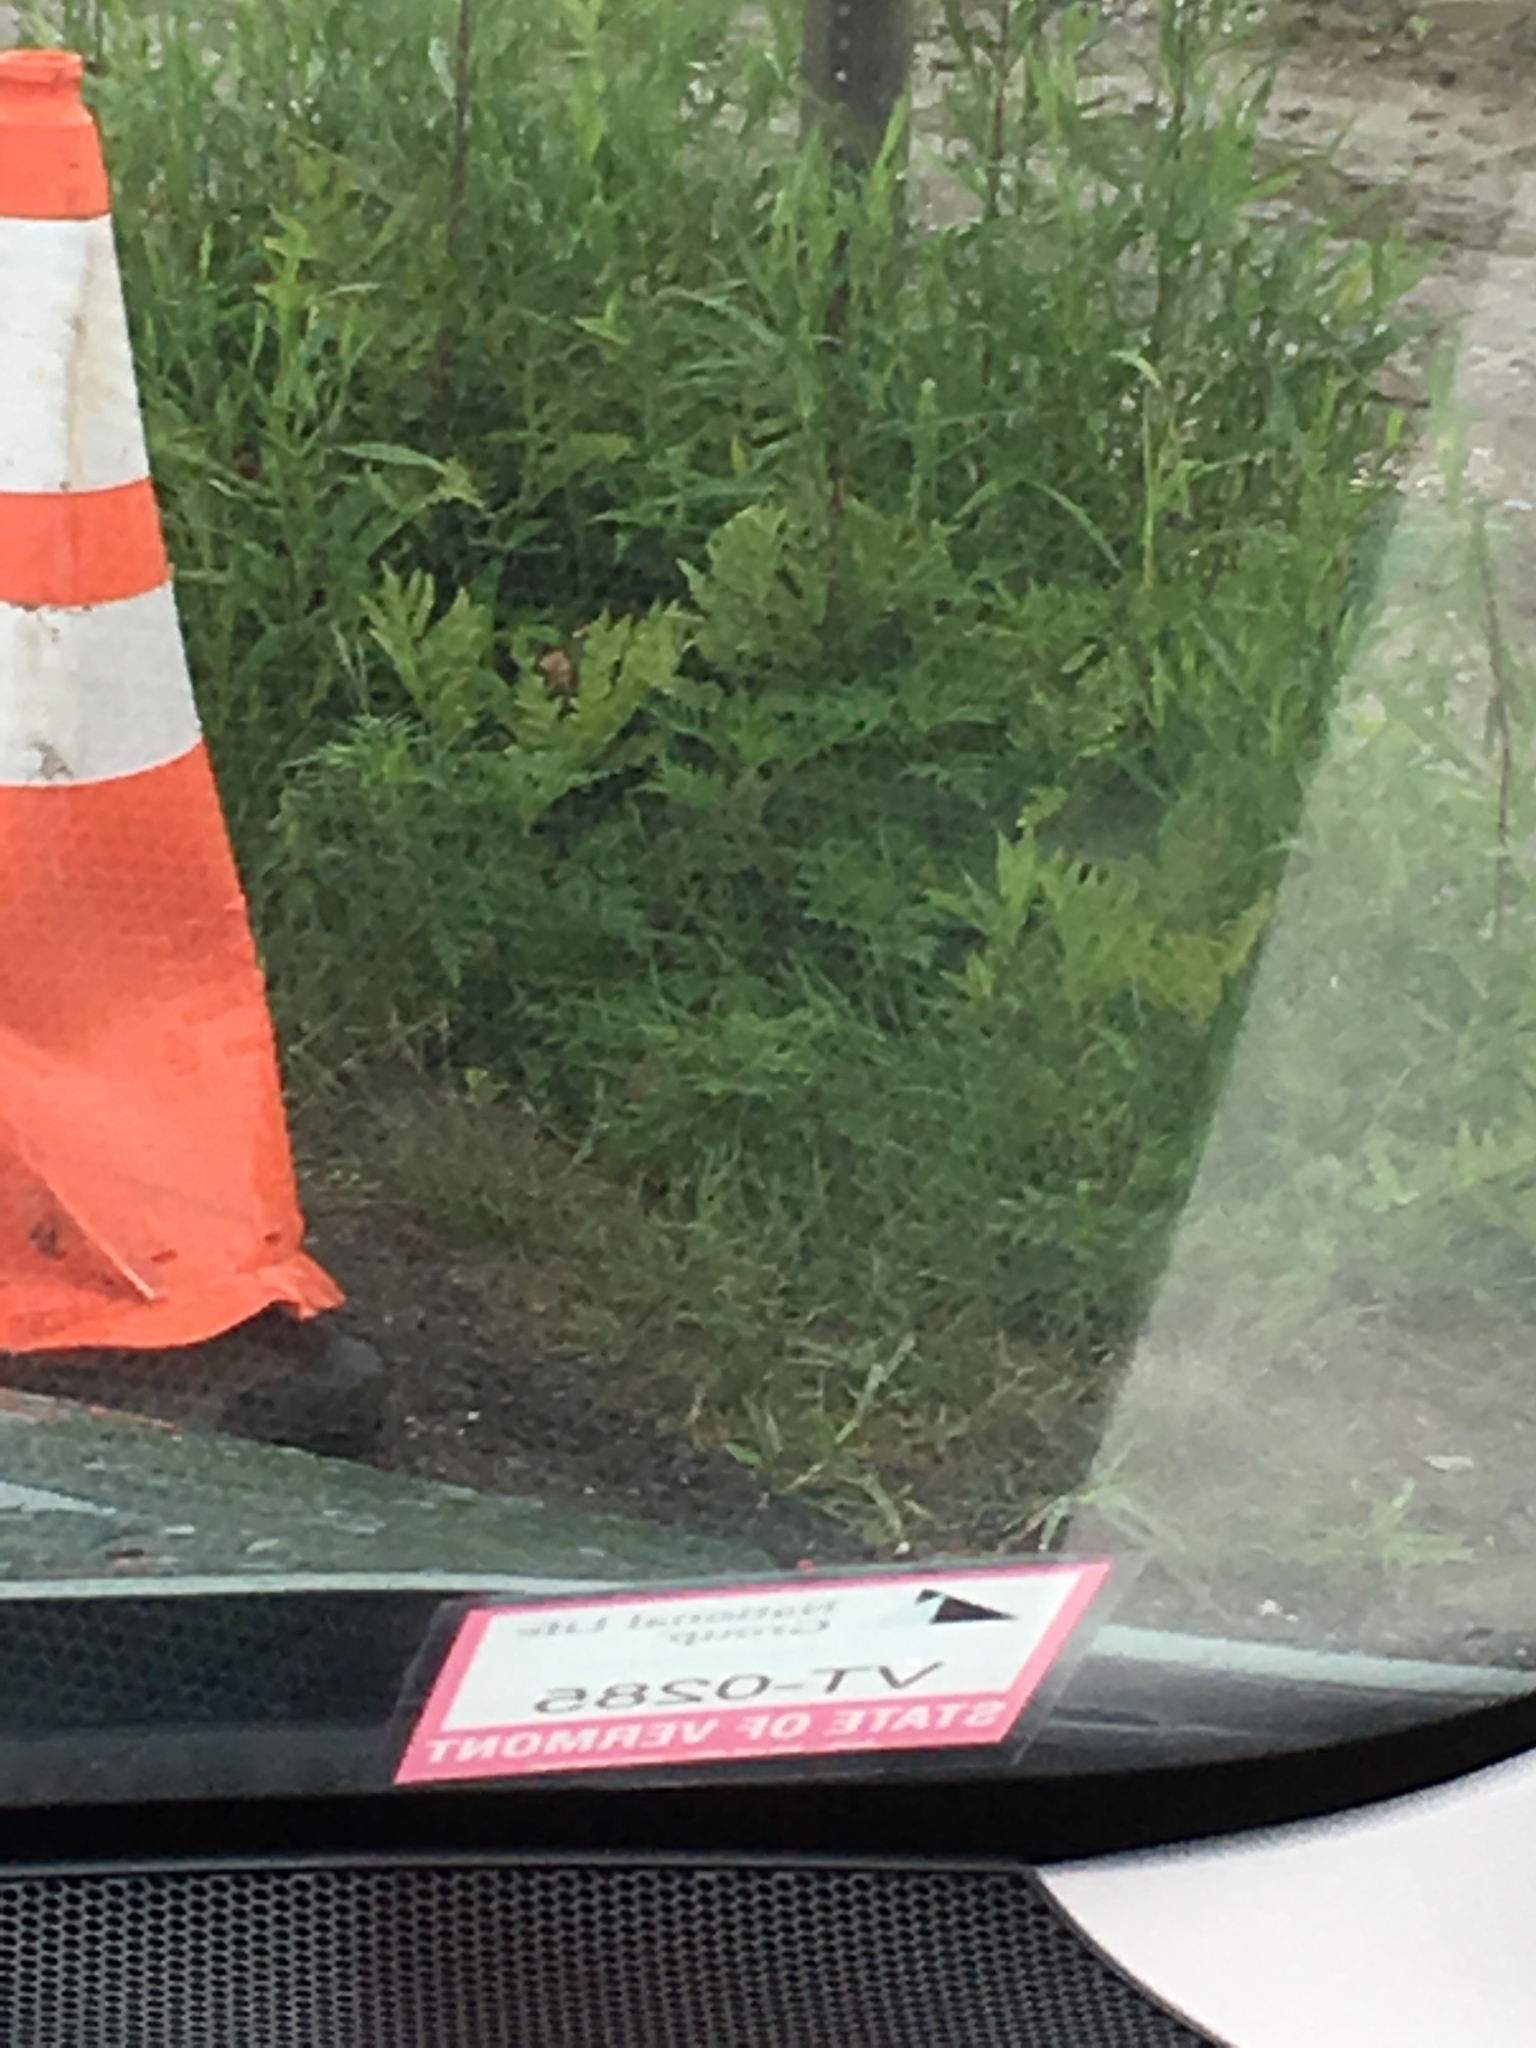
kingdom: Plantae
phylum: Tracheophyta
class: Polypodiopsida
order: Polypodiales
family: Onocleaceae
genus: Onoclea
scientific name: Onoclea sensibilis
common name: Sensitive fern
